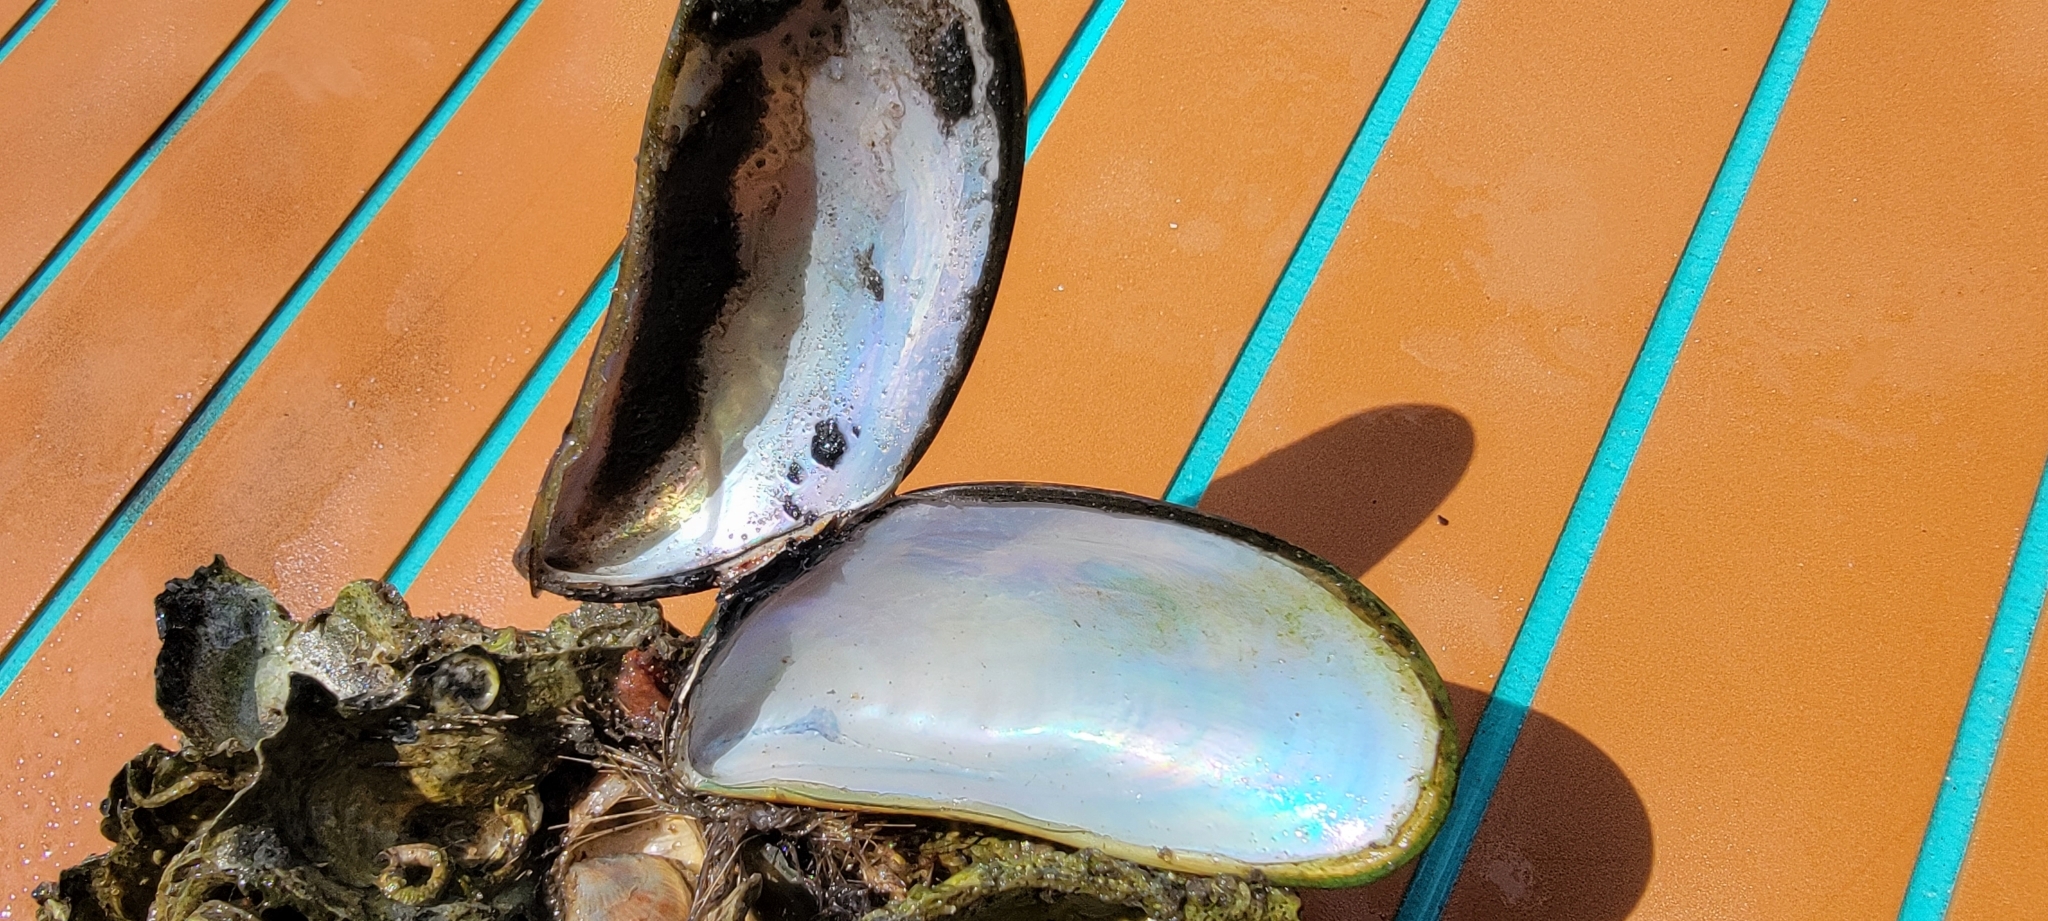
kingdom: Animalia
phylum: Mollusca
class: Bivalvia
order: Mytilida
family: Mytilidae
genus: Perna
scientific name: Perna viridis
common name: Green mussel
